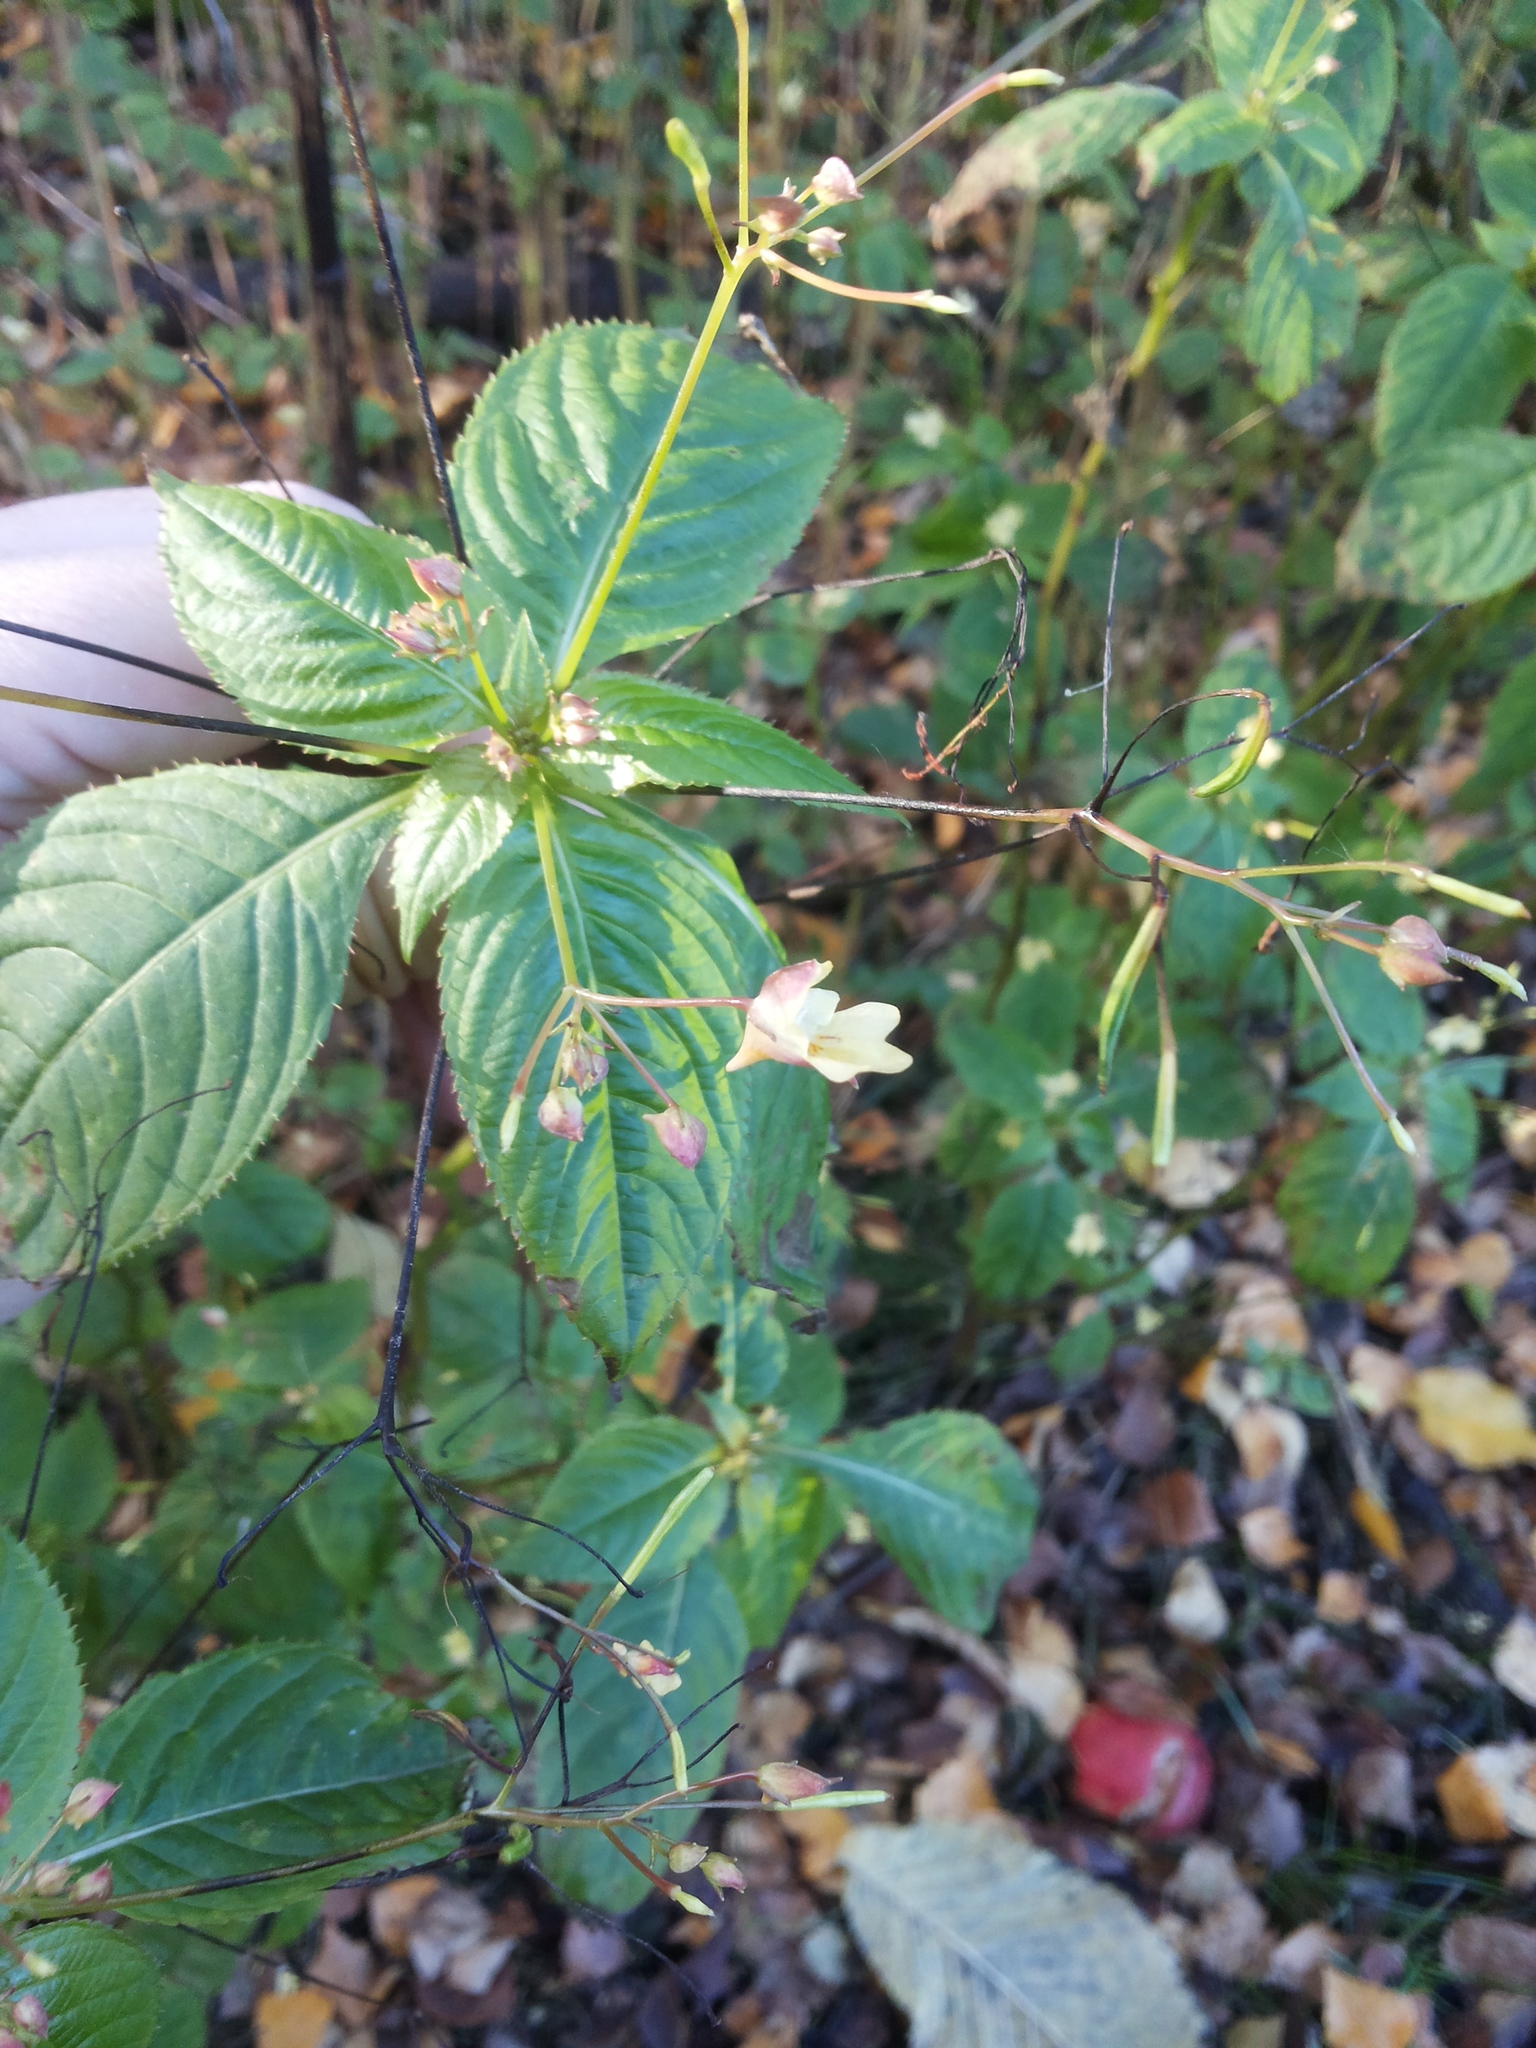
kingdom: Plantae
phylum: Tracheophyta
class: Magnoliopsida
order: Ericales
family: Balsaminaceae
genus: Impatiens
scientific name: Impatiens parviflora
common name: Small balsam
